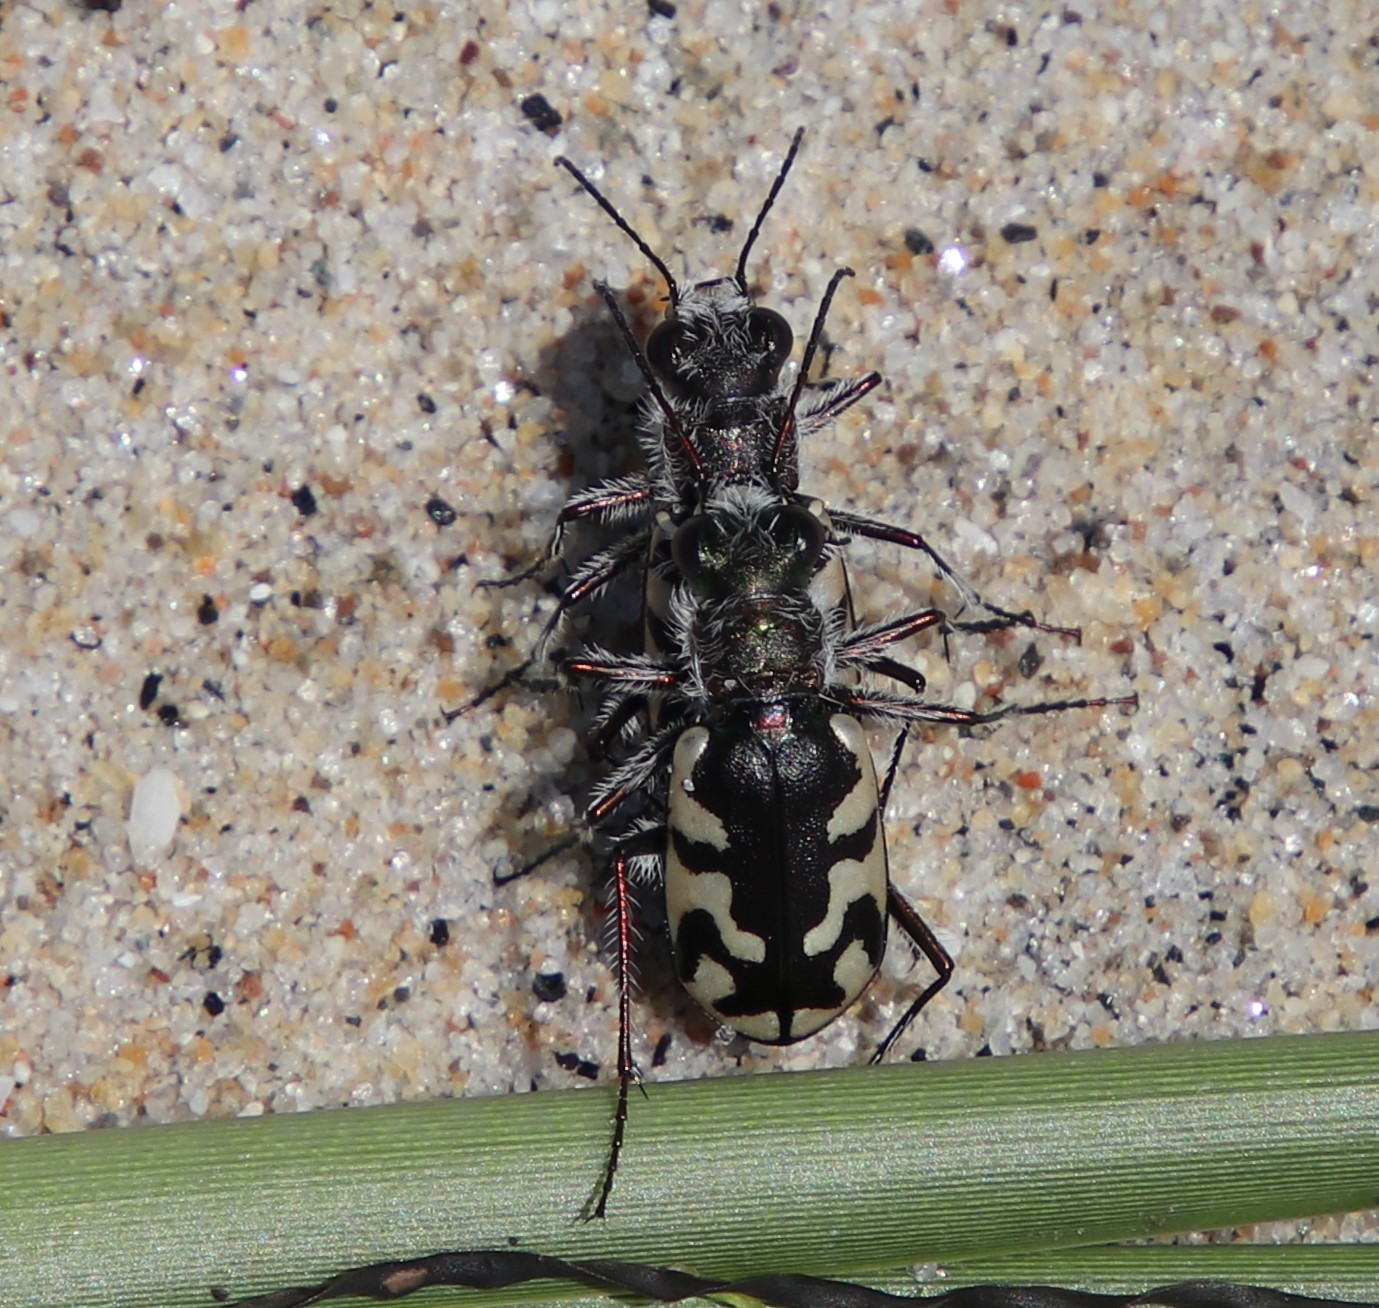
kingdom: Animalia
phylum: Arthropoda
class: Insecta
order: Coleoptera
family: Carabidae
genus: Cicindela
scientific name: Cicindela latesignata
